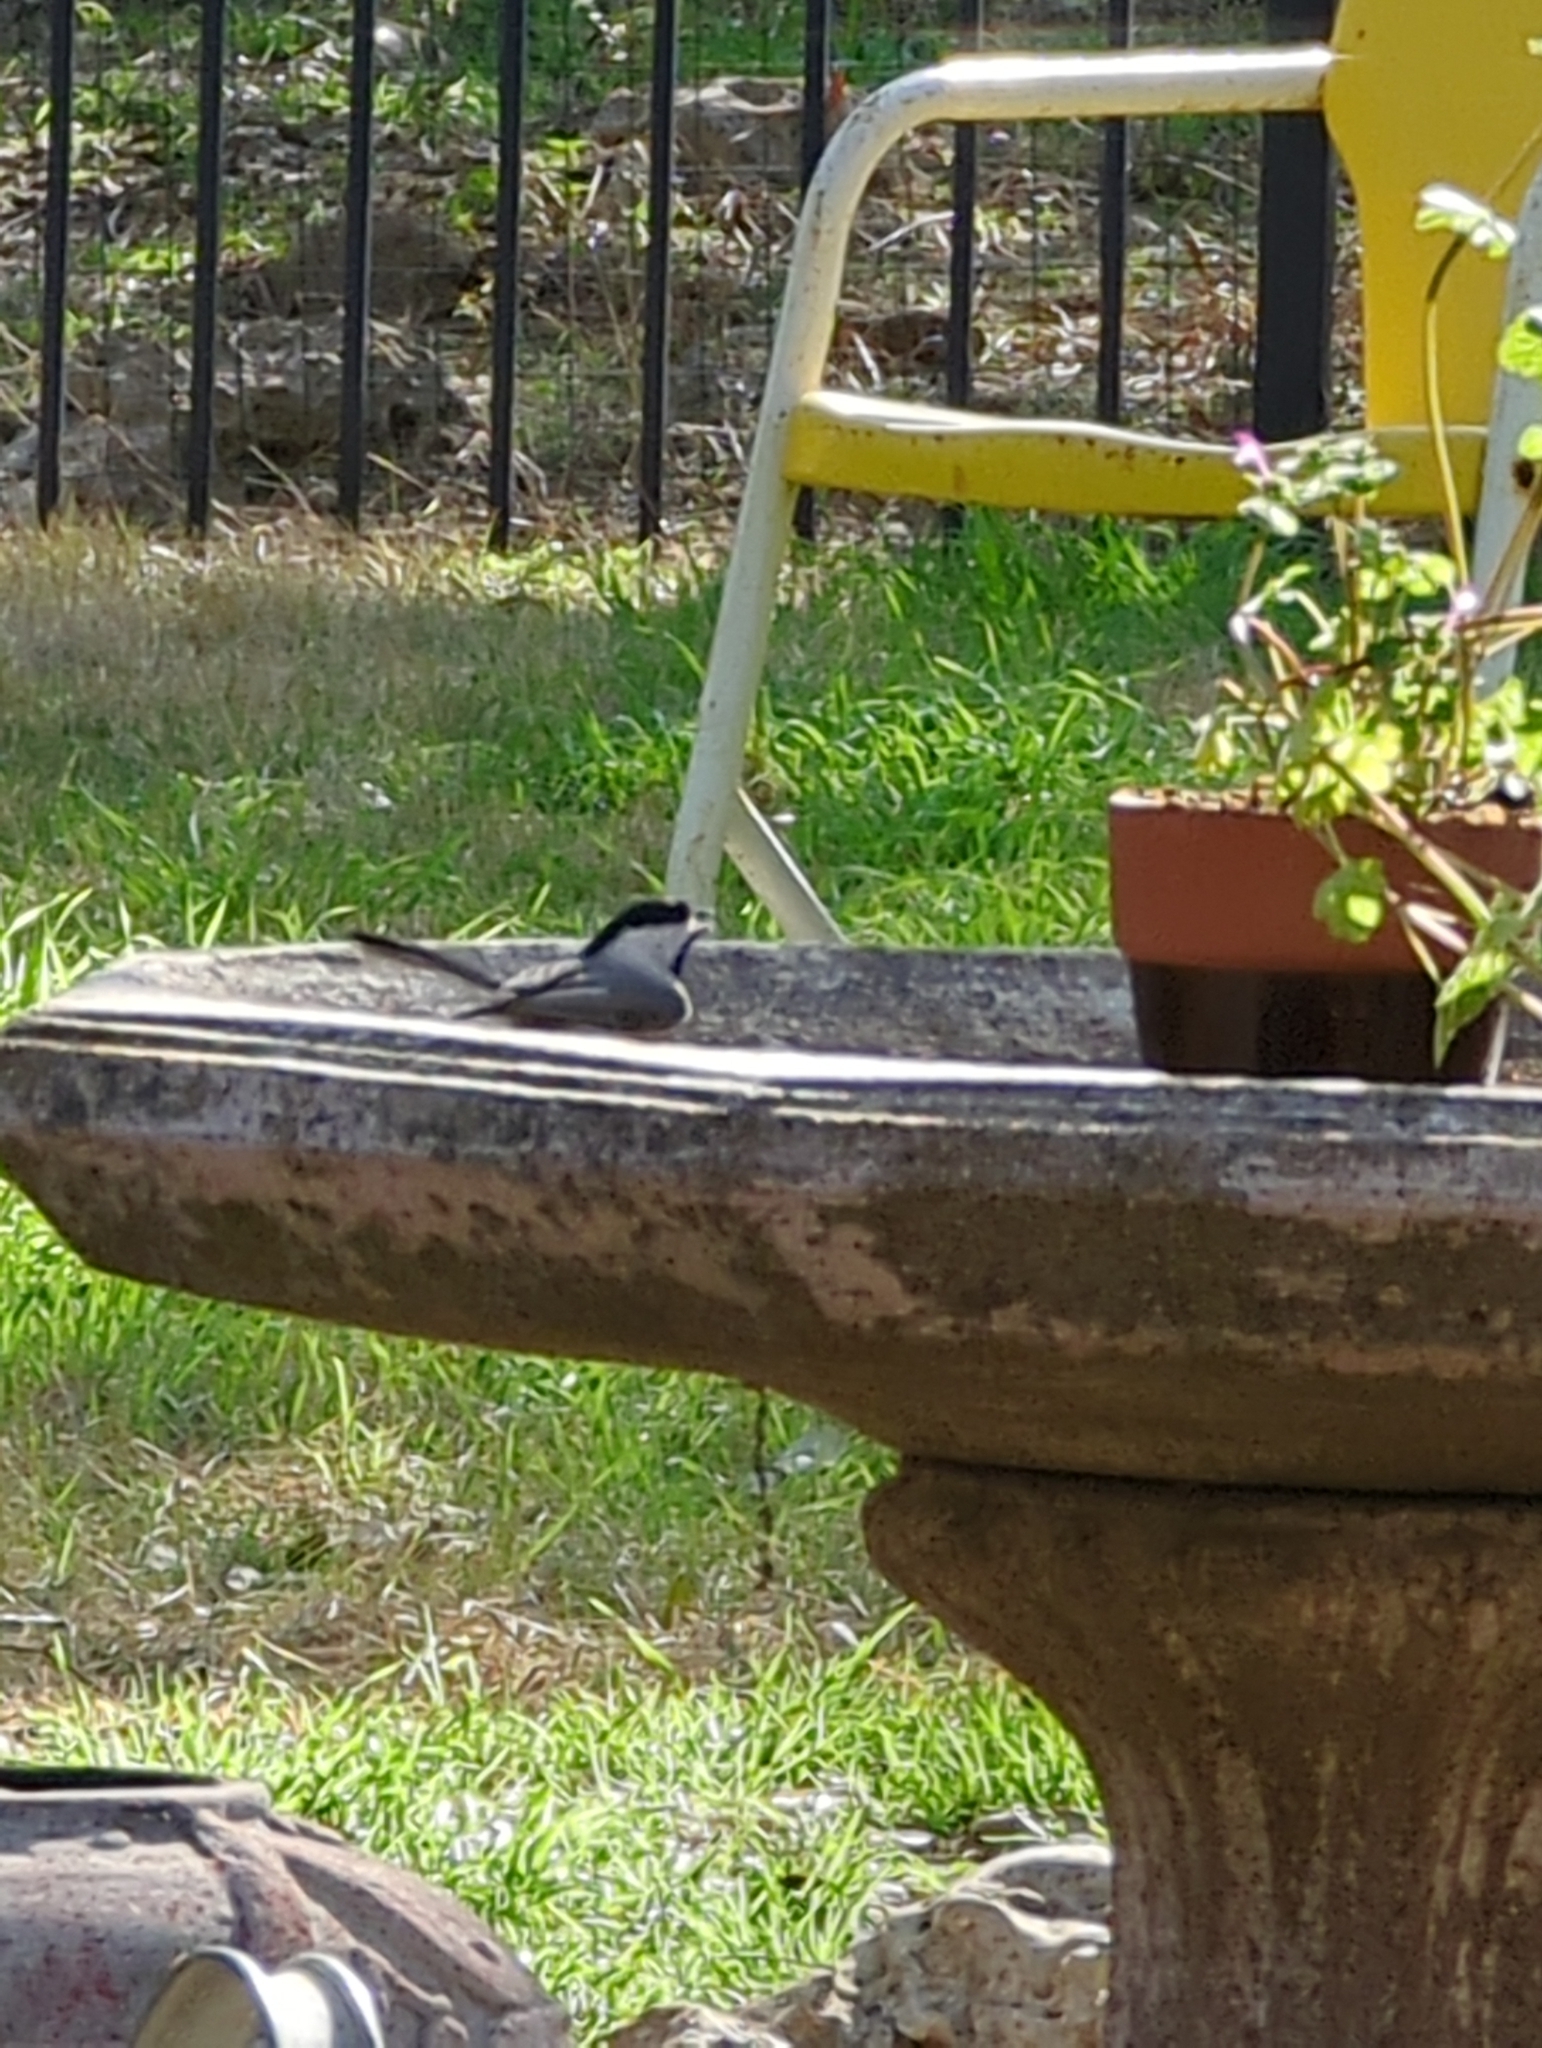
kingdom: Animalia
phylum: Chordata
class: Aves
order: Passeriformes
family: Paridae
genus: Poecile
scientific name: Poecile carolinensis
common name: Carolina chickadee
